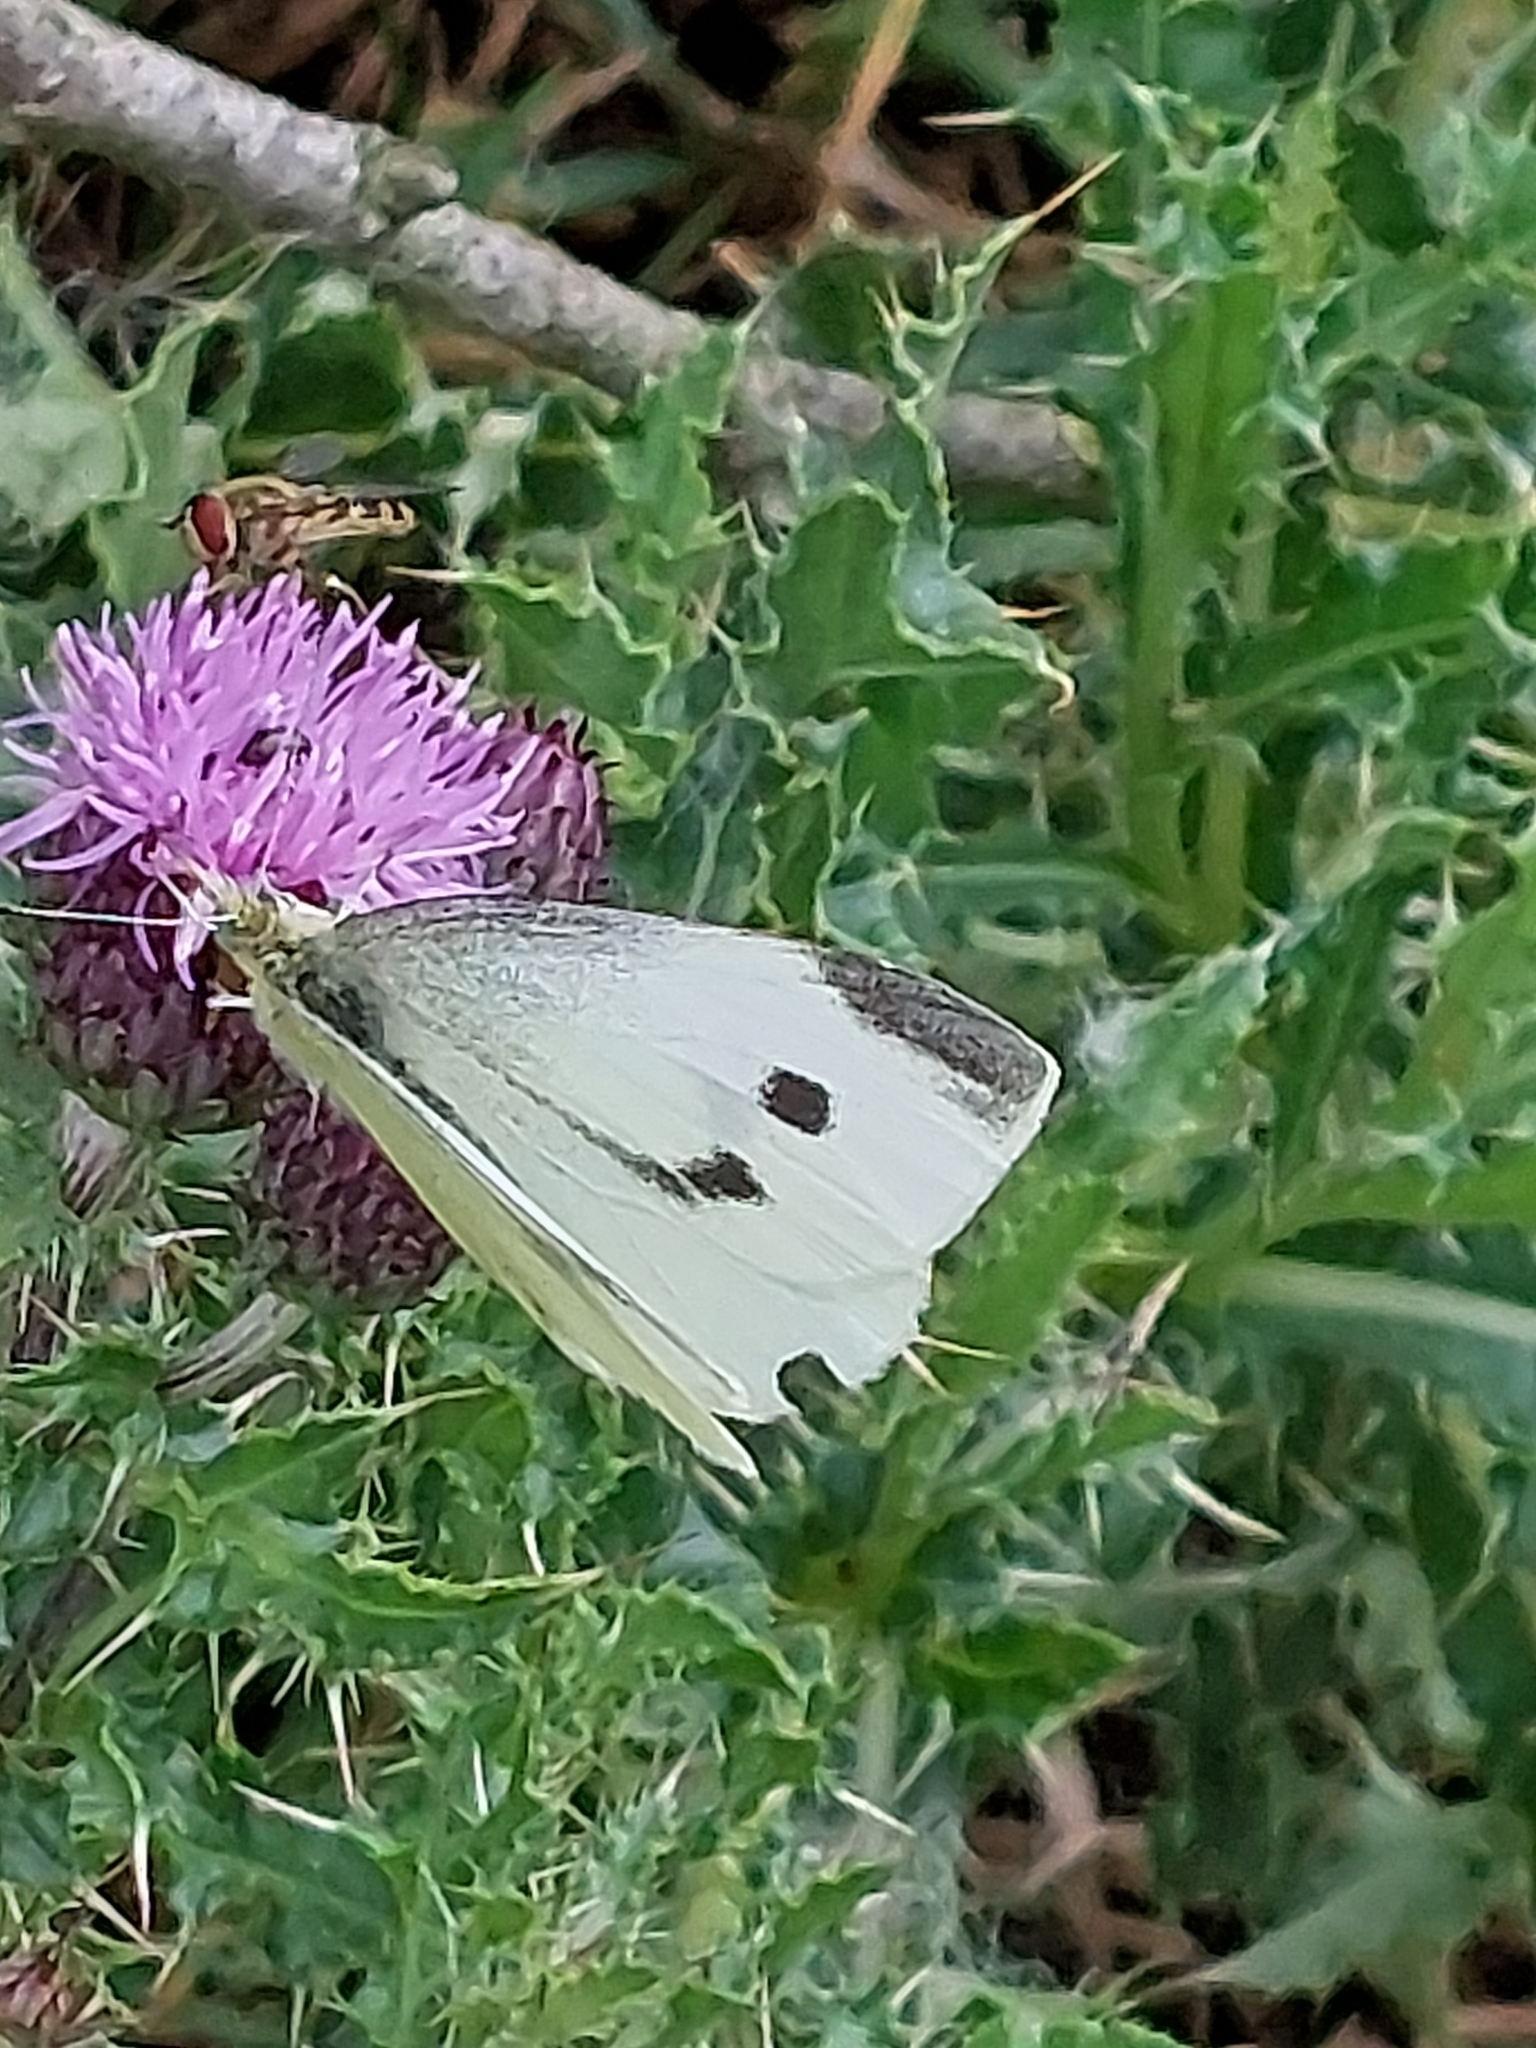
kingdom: Animalia
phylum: Arthropoda
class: Insecta
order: Lepidoptera
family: Pieridae
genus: Pieris
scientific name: Pieris rapae
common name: Small white
